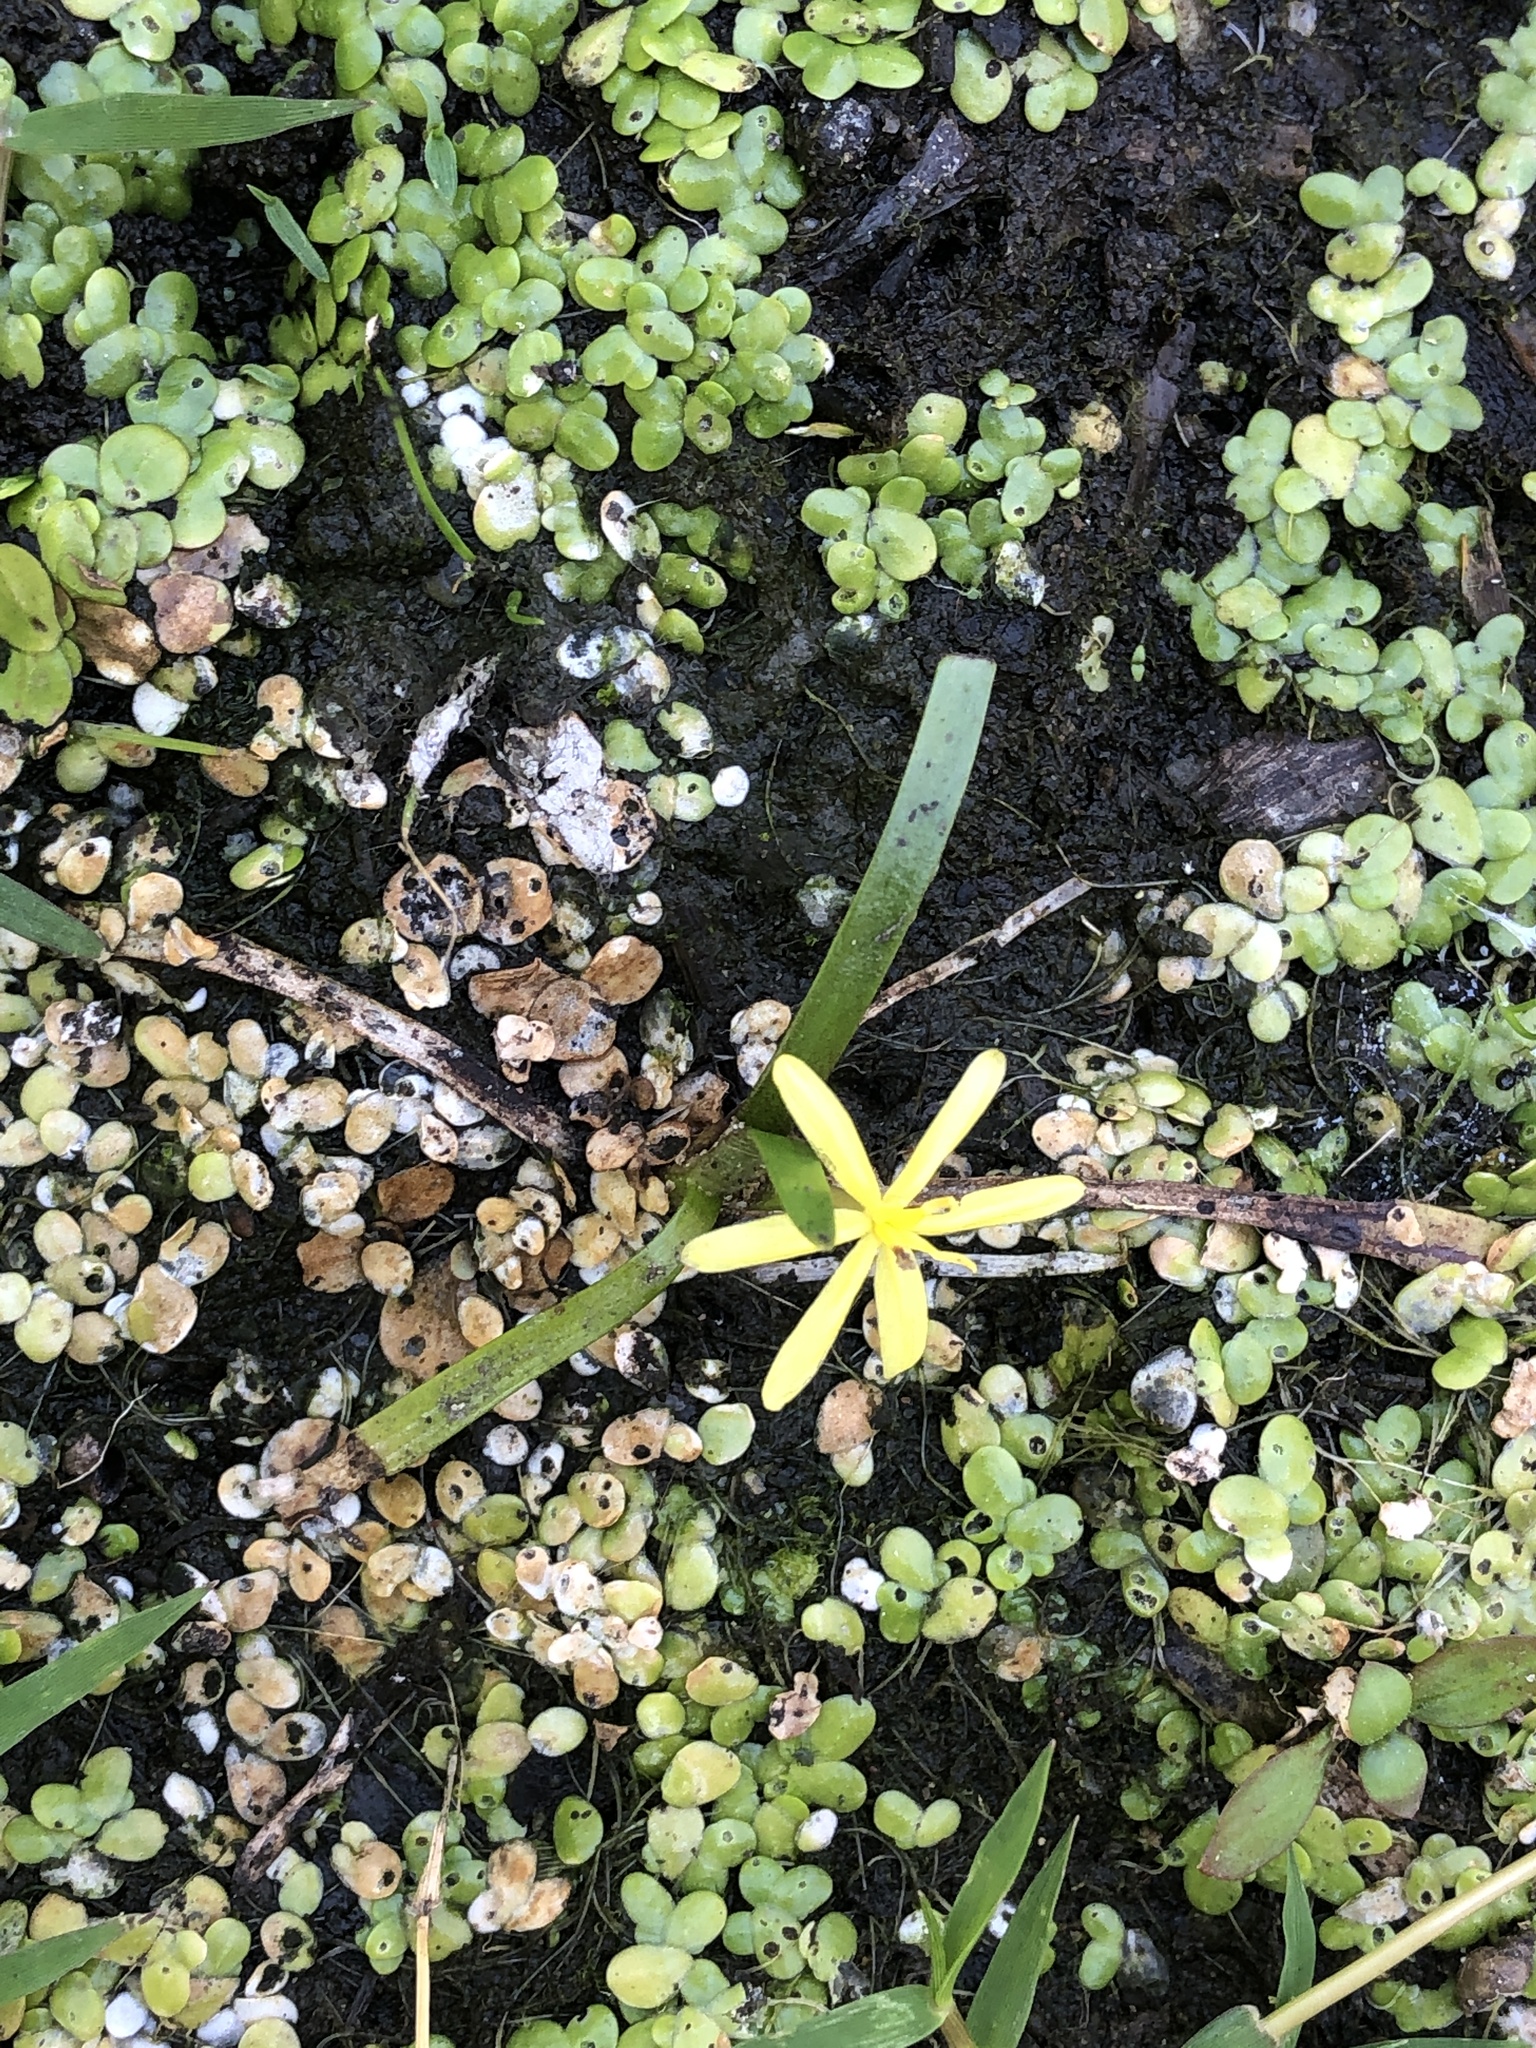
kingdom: Plantae
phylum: Tracheophyta
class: Liliopsida
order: Commelinales
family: Pontederiaceae
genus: Heteranthera
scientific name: Heteranthera dubia
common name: Grass-leaved mud plantain
